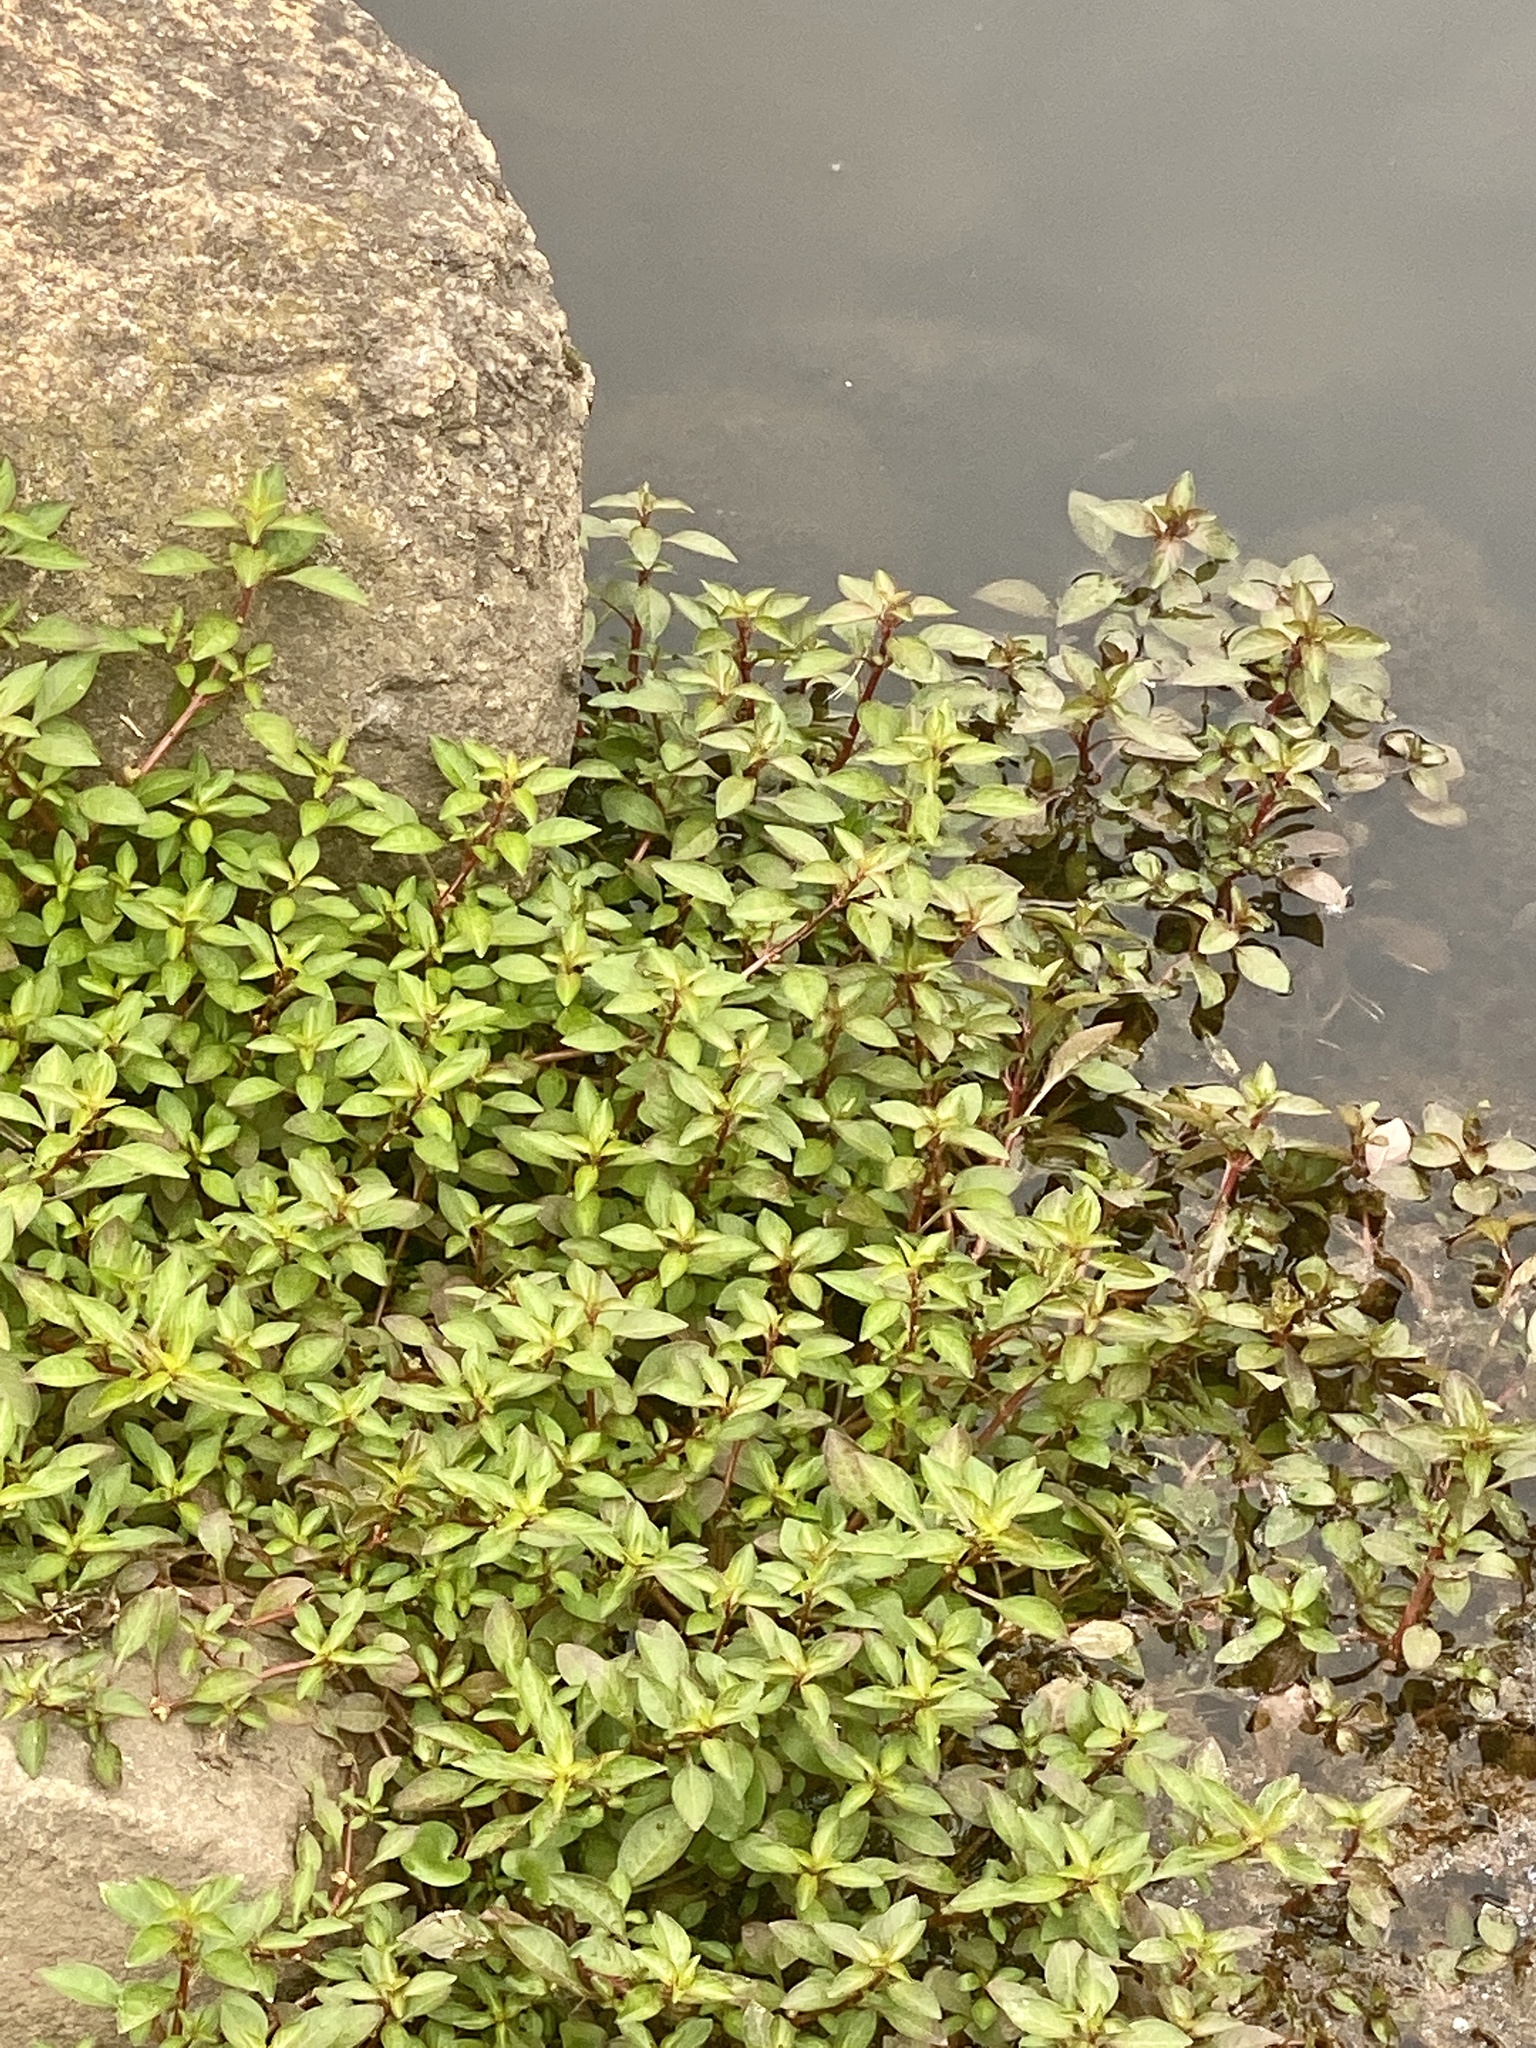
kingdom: Plantae
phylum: Tracheophyta
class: Magnoliopsida
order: Myrtales
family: Onagraceae
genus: Ludwigia
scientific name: Ludwigia palustris
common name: Hampshire-purslane
